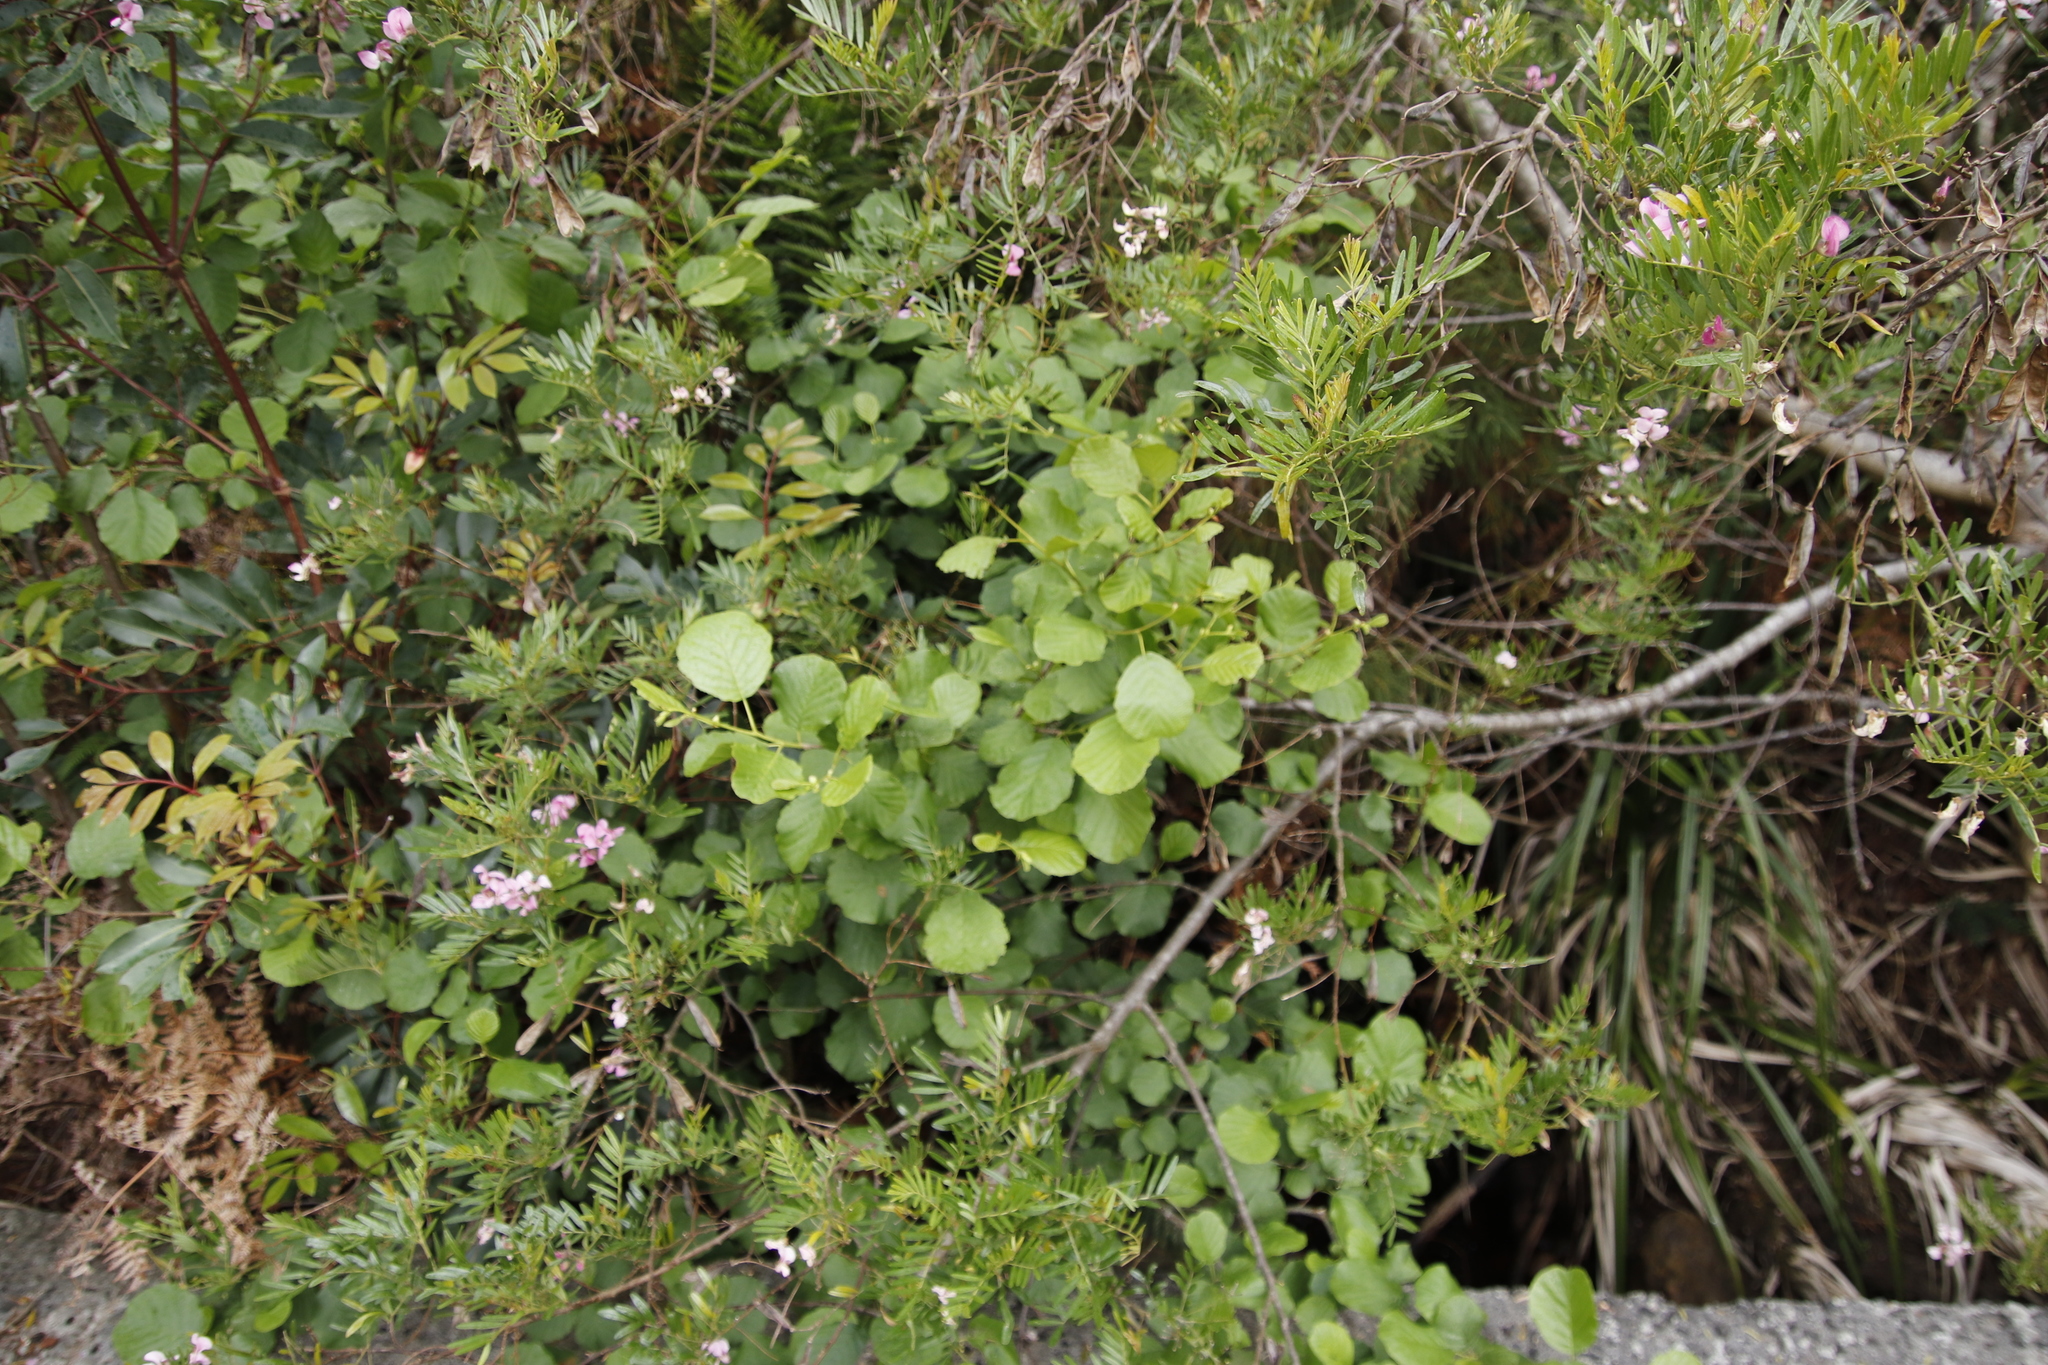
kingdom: Plantae
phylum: Tracheophyta
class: Magnoliopsida
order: Fagales
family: Betulaceae
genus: Alnus
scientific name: Alnus glutinosa
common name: Black alder
